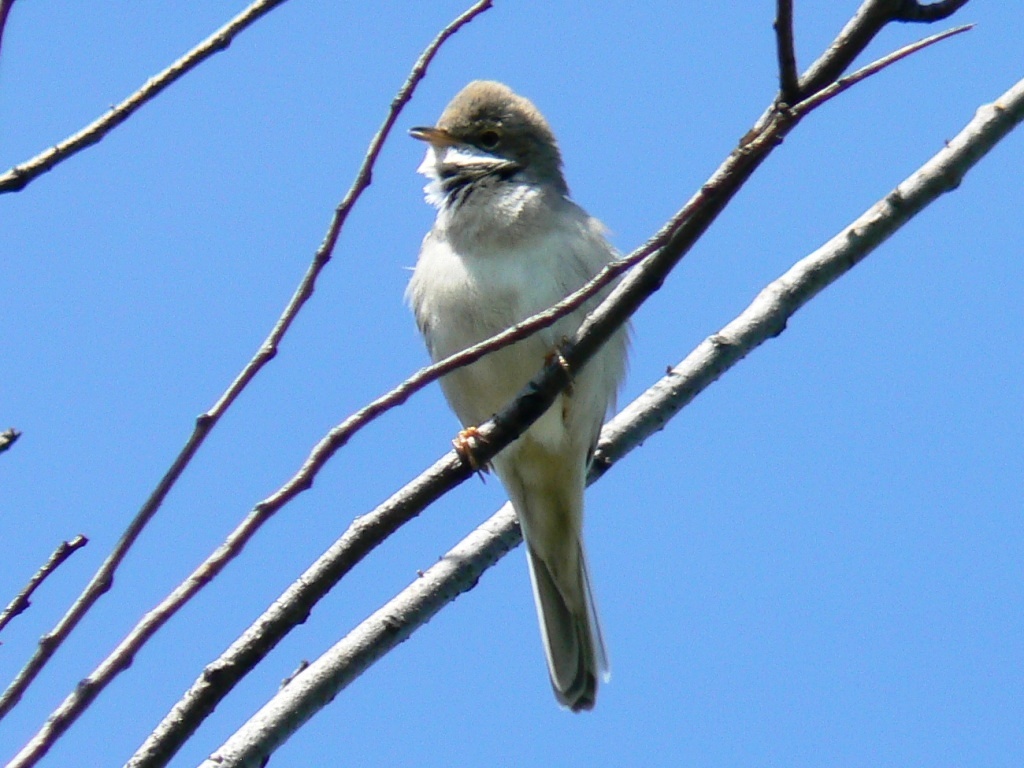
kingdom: Animalia
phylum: Chordata
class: Aves
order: Passeriformes
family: Sylviidae
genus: Sylvia
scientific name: Sylvia communis
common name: Common whitethroat
